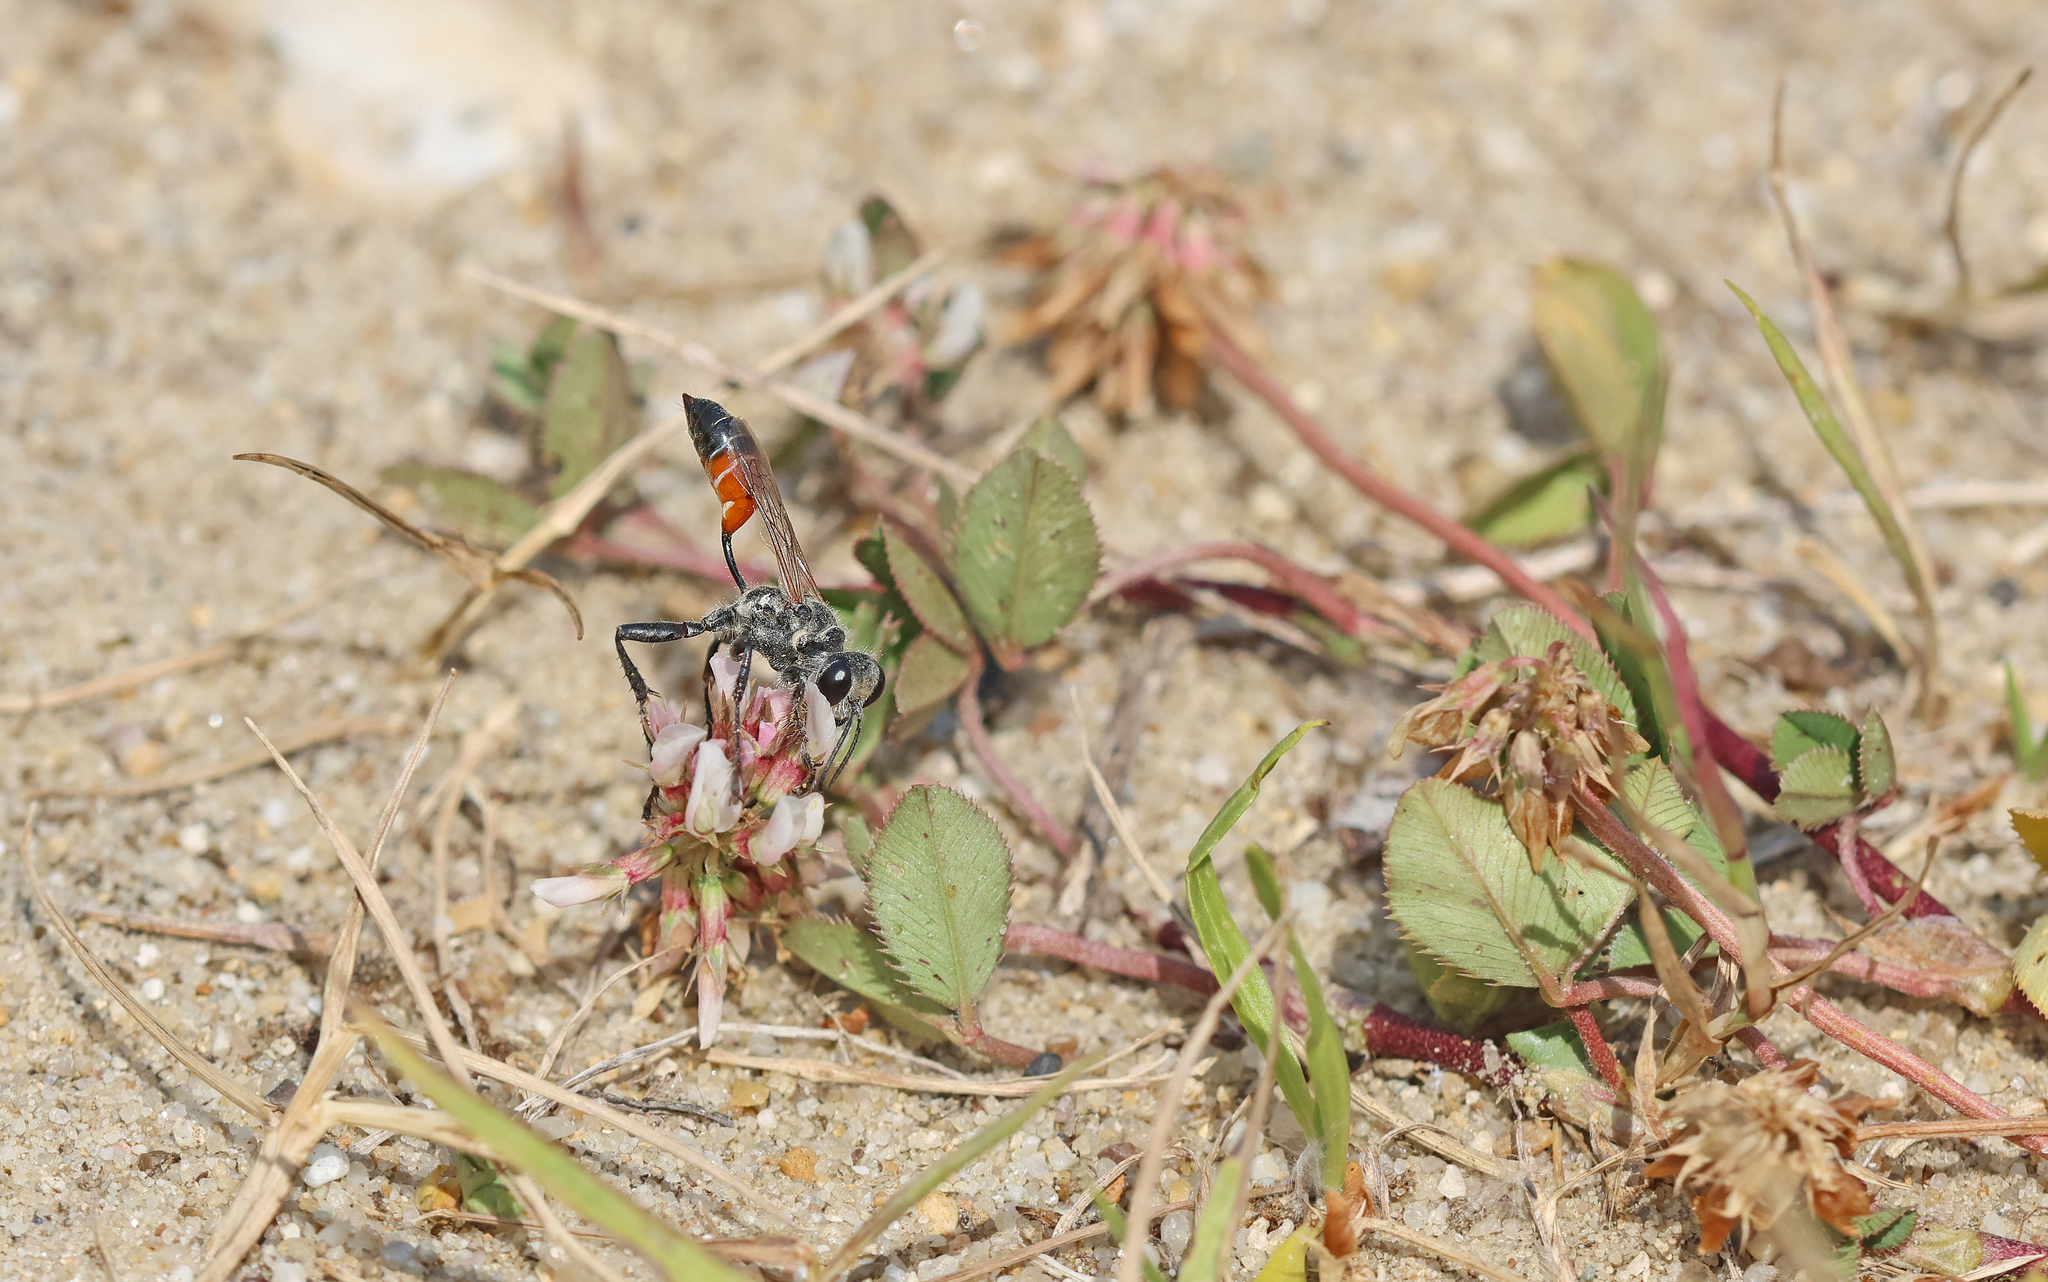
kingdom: Animalia
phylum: Arthropoda
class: Insecta
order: Hymenoptera
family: Sphecidae
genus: Prionyx
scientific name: Prionyx kirbii
